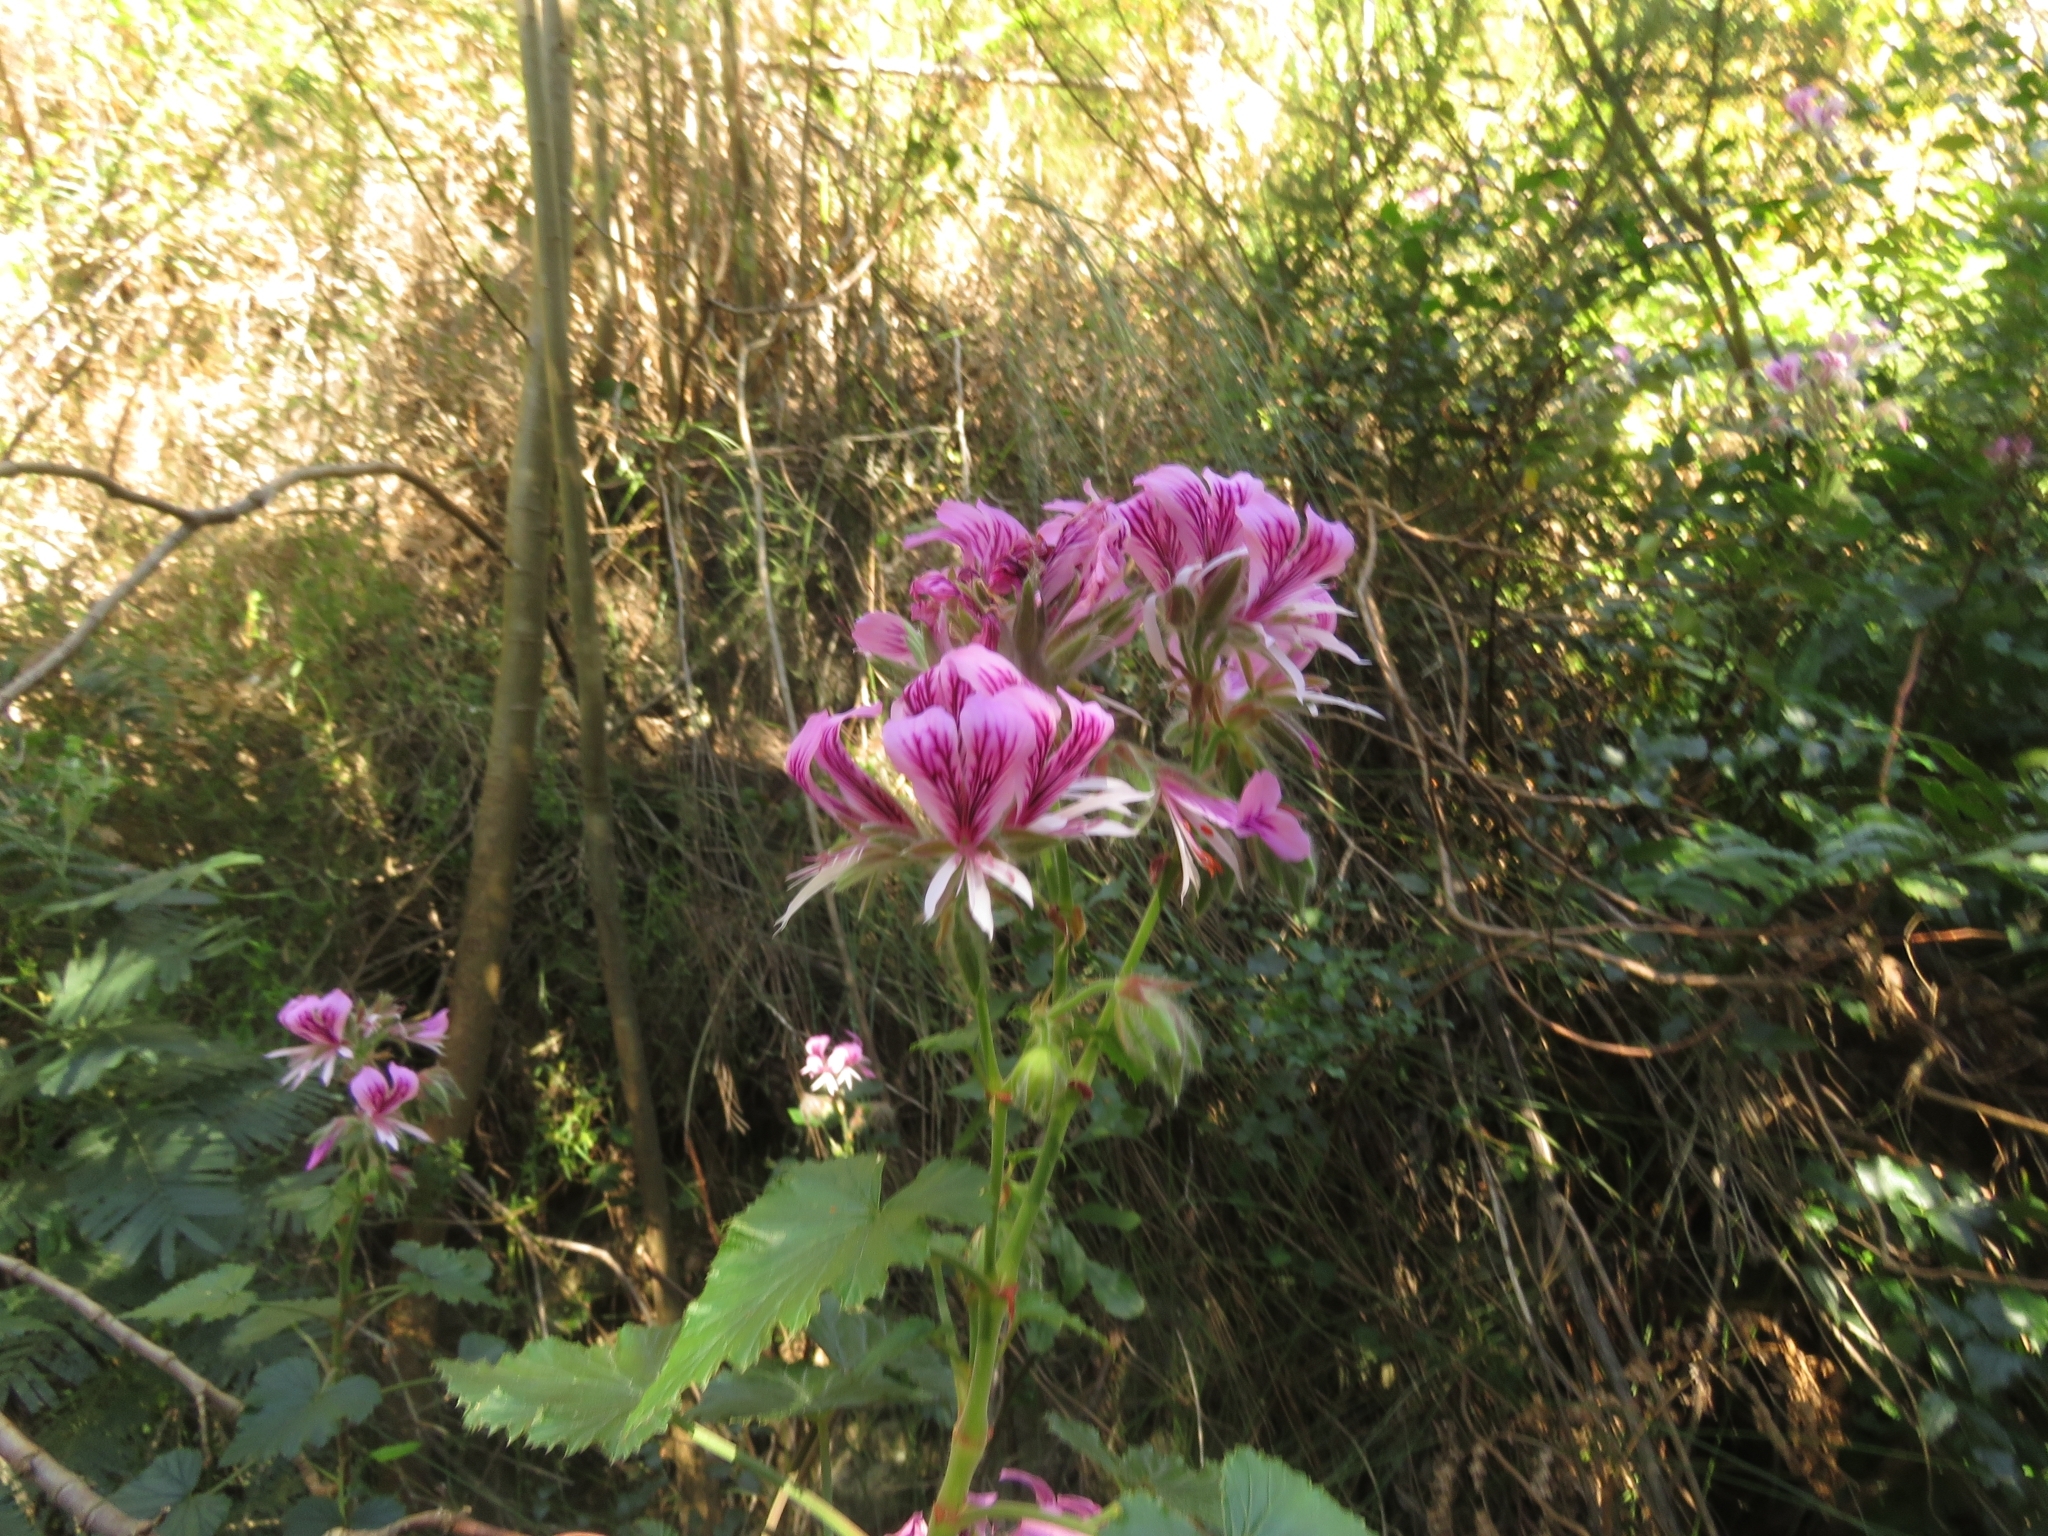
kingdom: Plantae
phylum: Tracheophyta
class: Magnoliopsida
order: Geraniales
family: Geraniaceae
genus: Pelargonium
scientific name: Pelargonium cordifolium
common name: Heart-leaf pelargonium
